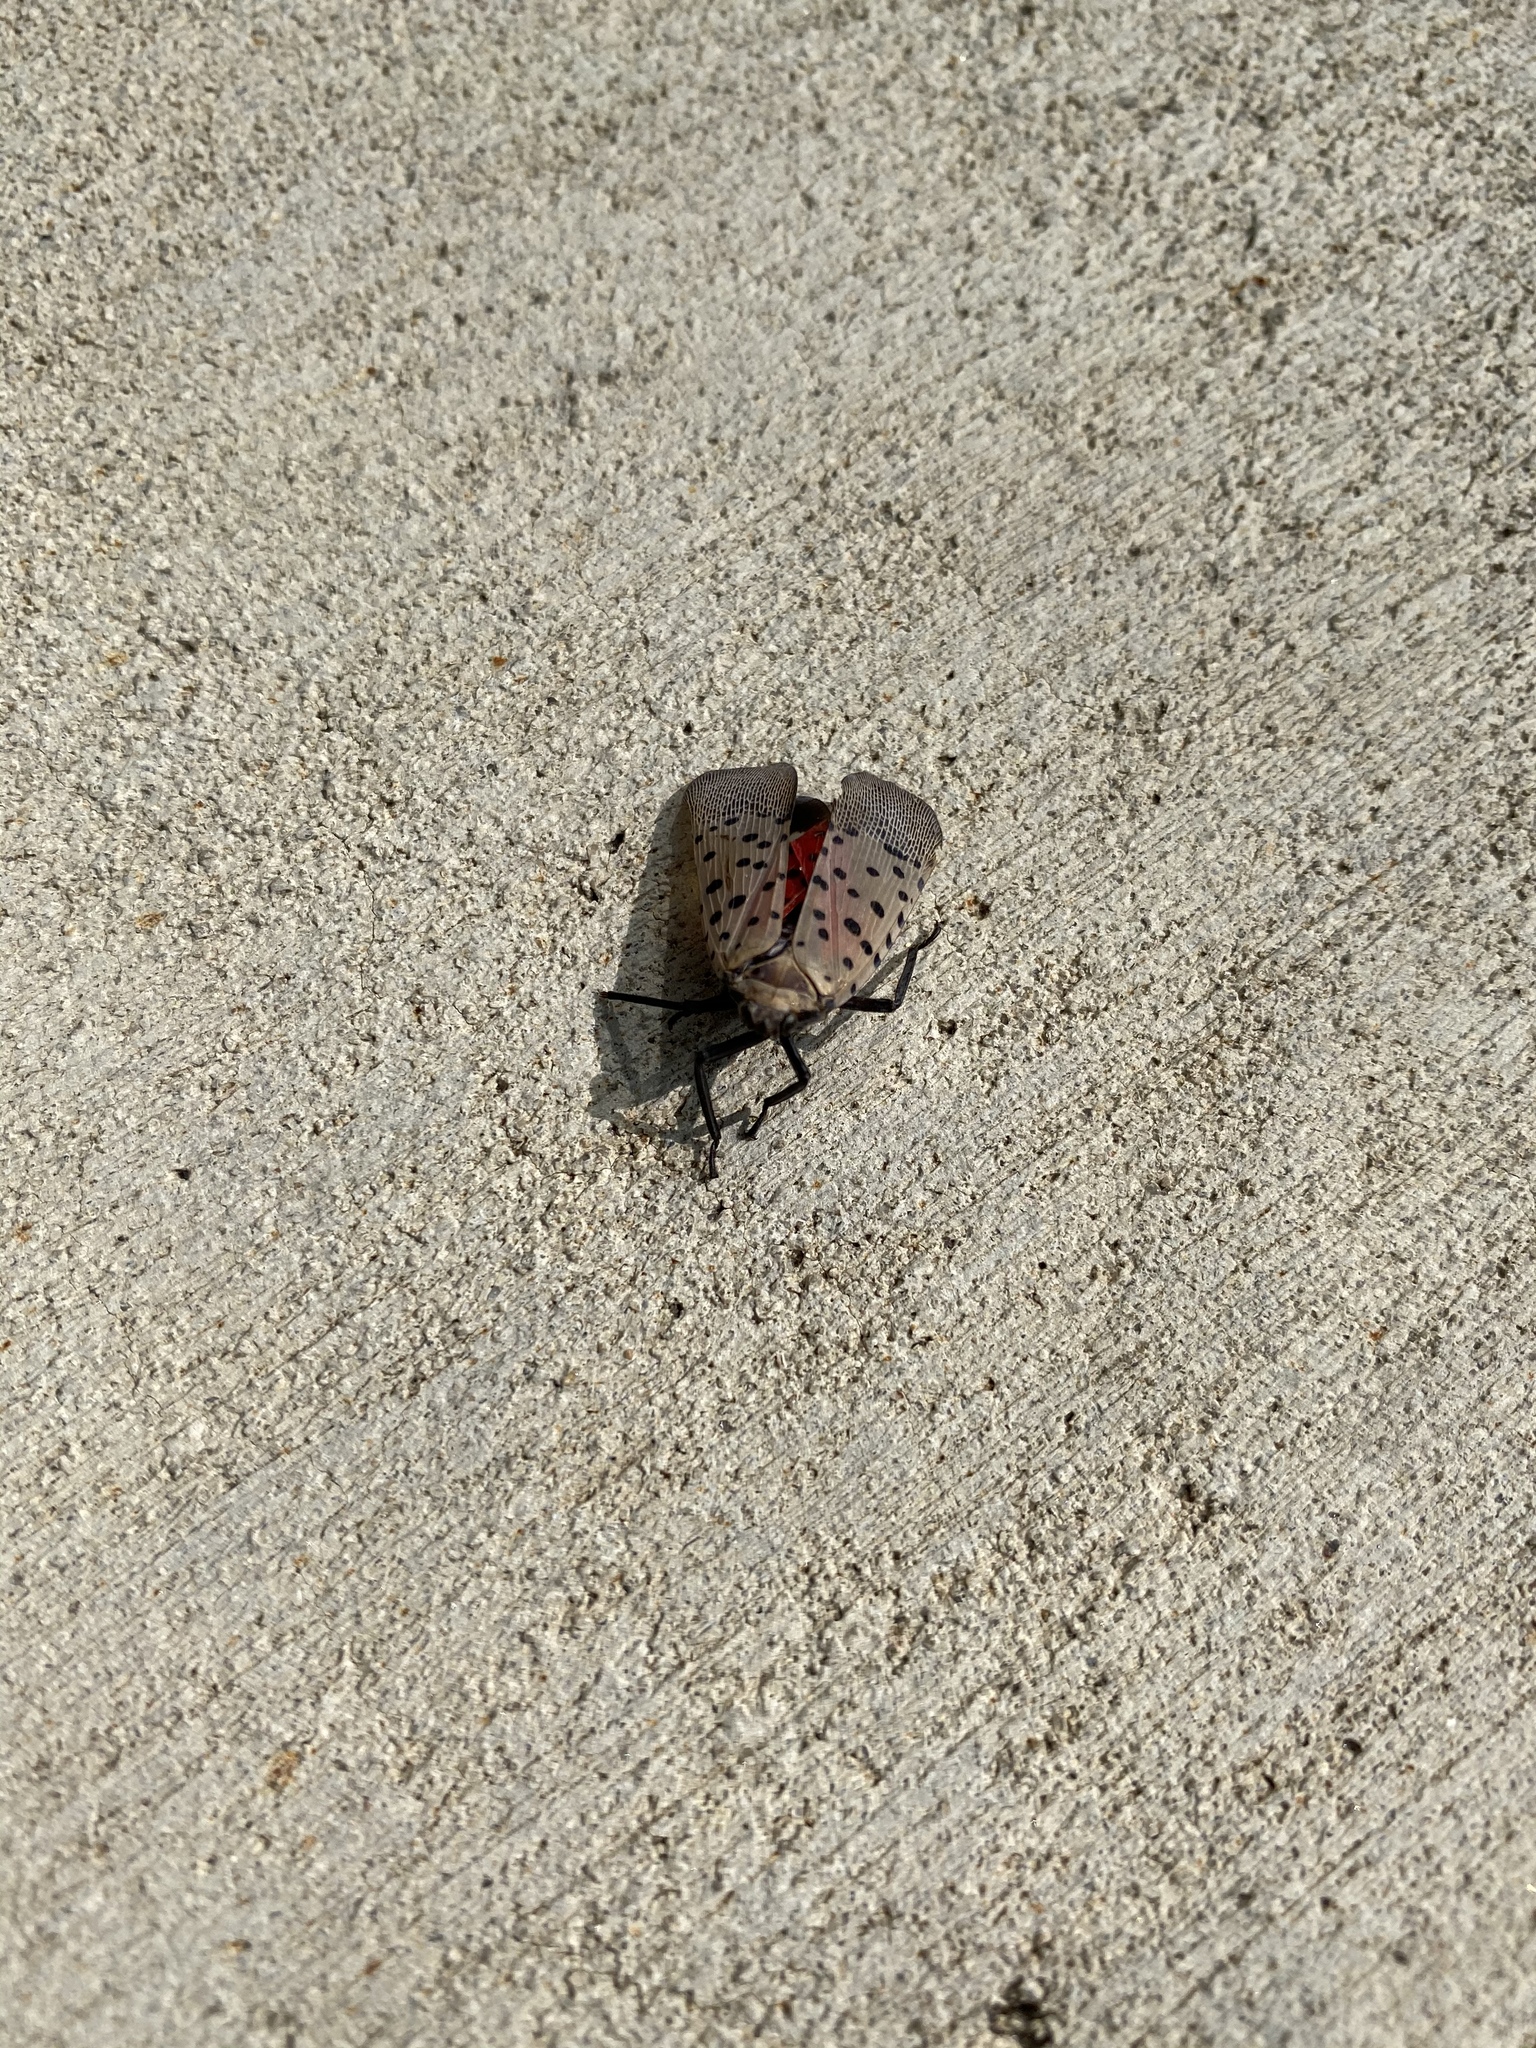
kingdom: Animalia
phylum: Arthropoda
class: Insecta
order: Hemiptera
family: Fulgoridae
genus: Lycorma
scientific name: Lycorma delicatula
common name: Spotted lanternfly
